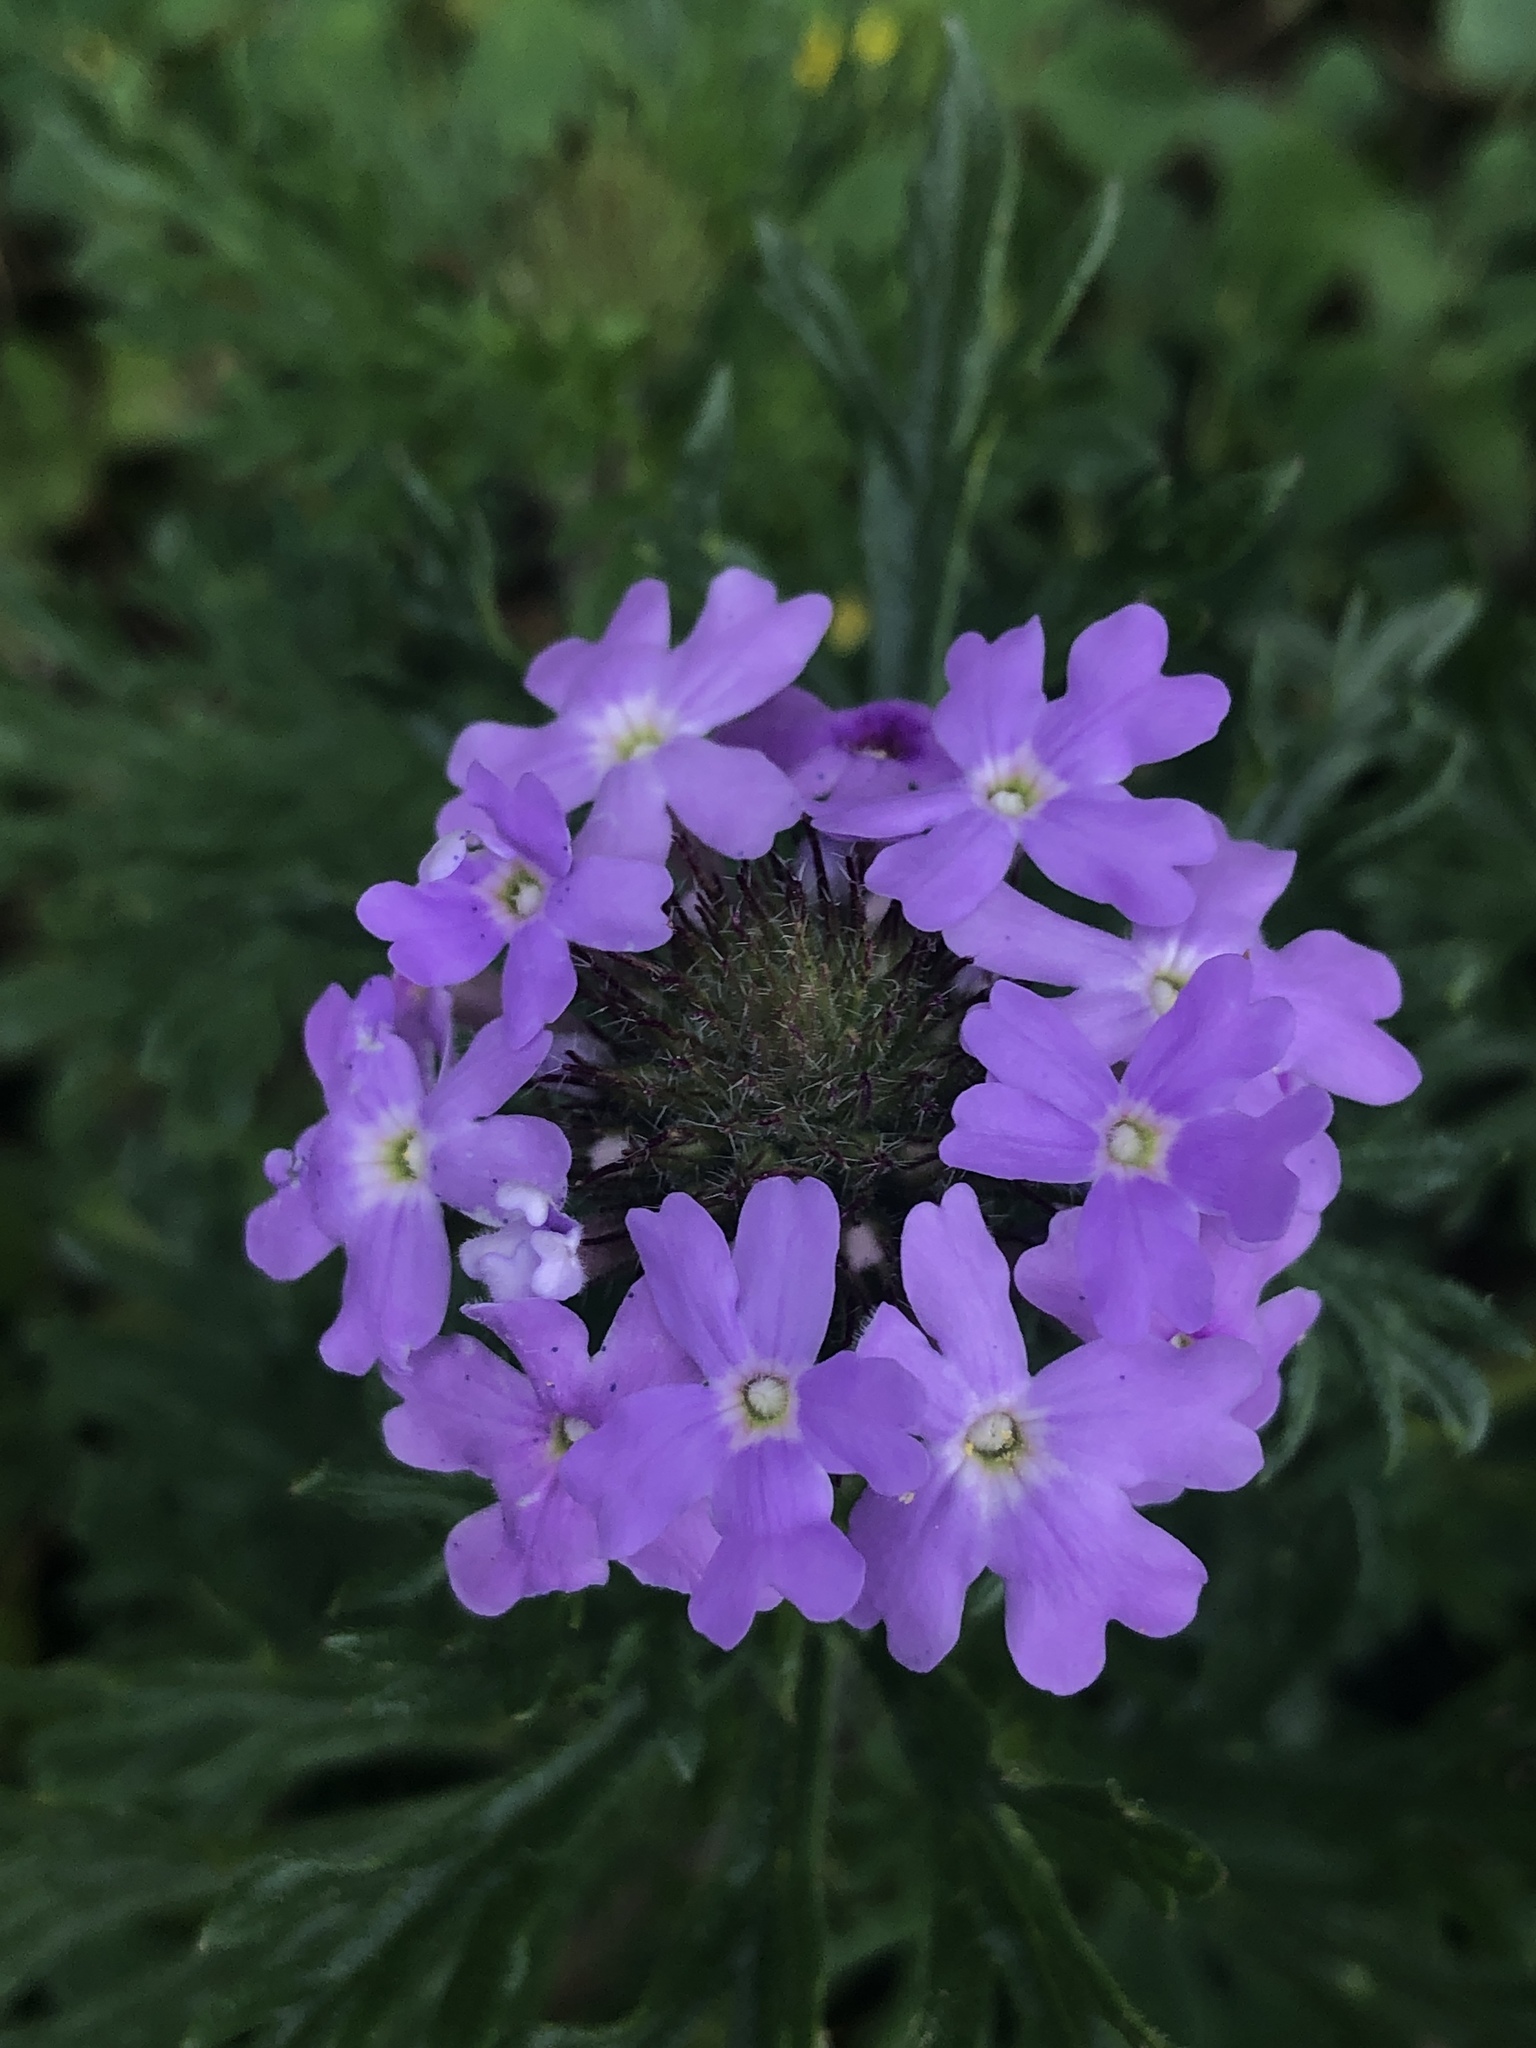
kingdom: Plantae
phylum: Tracheophyta
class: Magnoliopsida
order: Lamiales
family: Verbenaceae
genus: Verbena
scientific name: Verbena bipinnatifida
